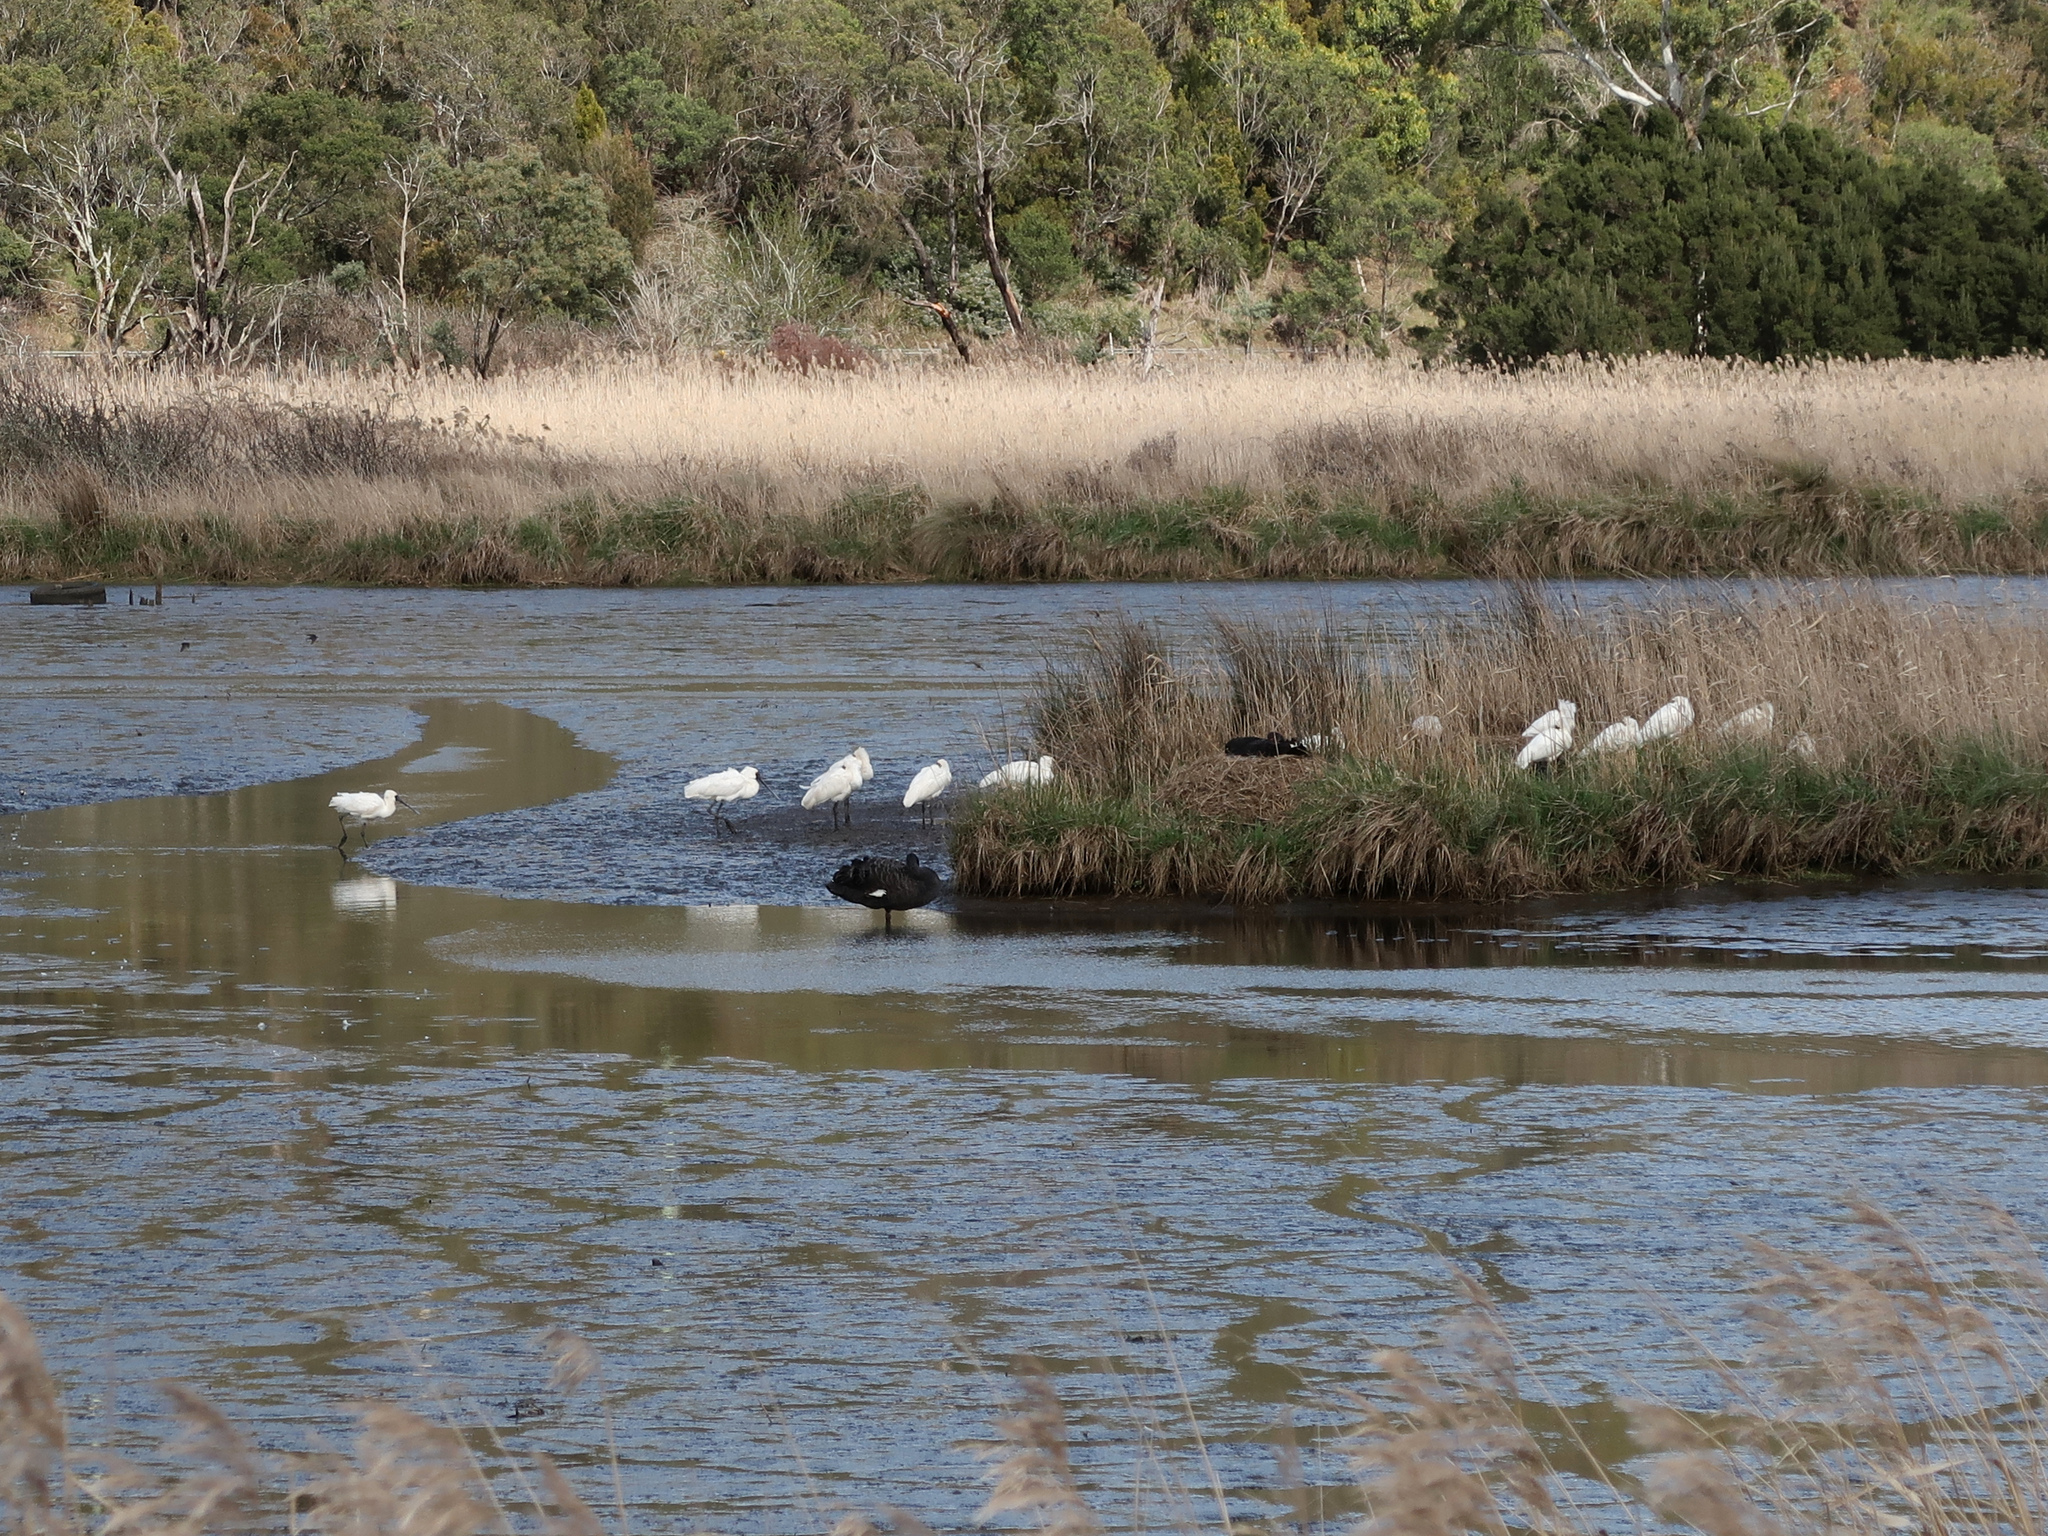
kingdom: Animalia
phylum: Chordata
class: Aves
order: Pelecaniformes
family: Threskiornithidae
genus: Platalea
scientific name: Platalea regia
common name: Royal spoonbill
